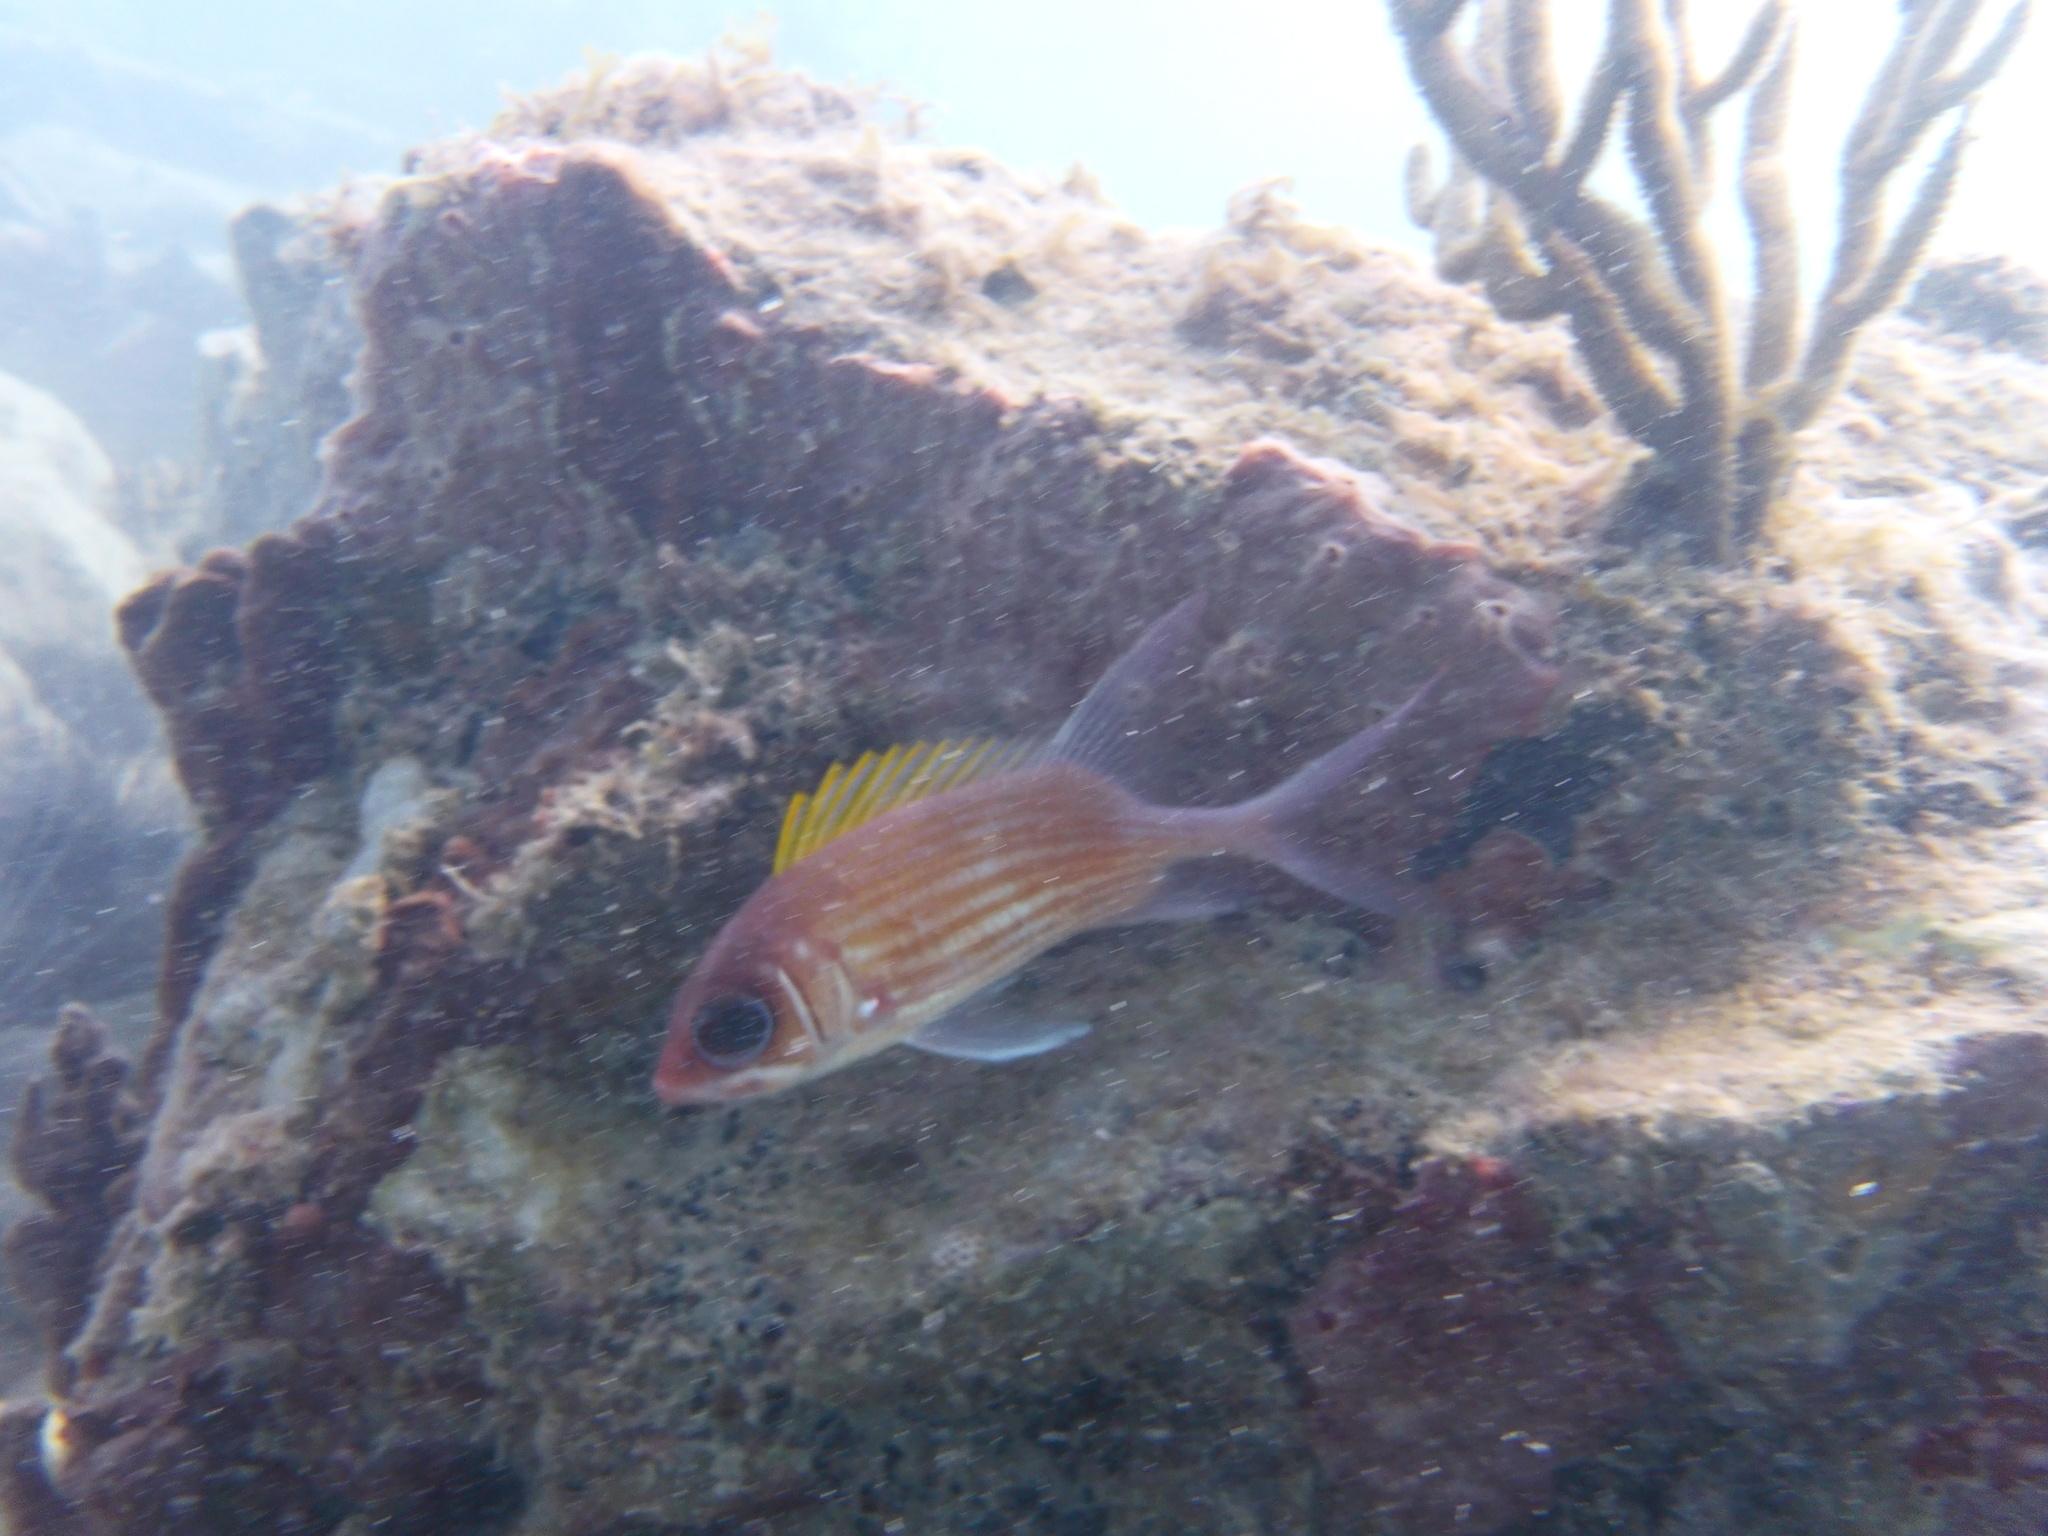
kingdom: Animalia
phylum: Chordata
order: Beryciformes
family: Holocentridae
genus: Holocentrus
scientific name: Holocentrus adscensionis
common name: Squirrelfish
